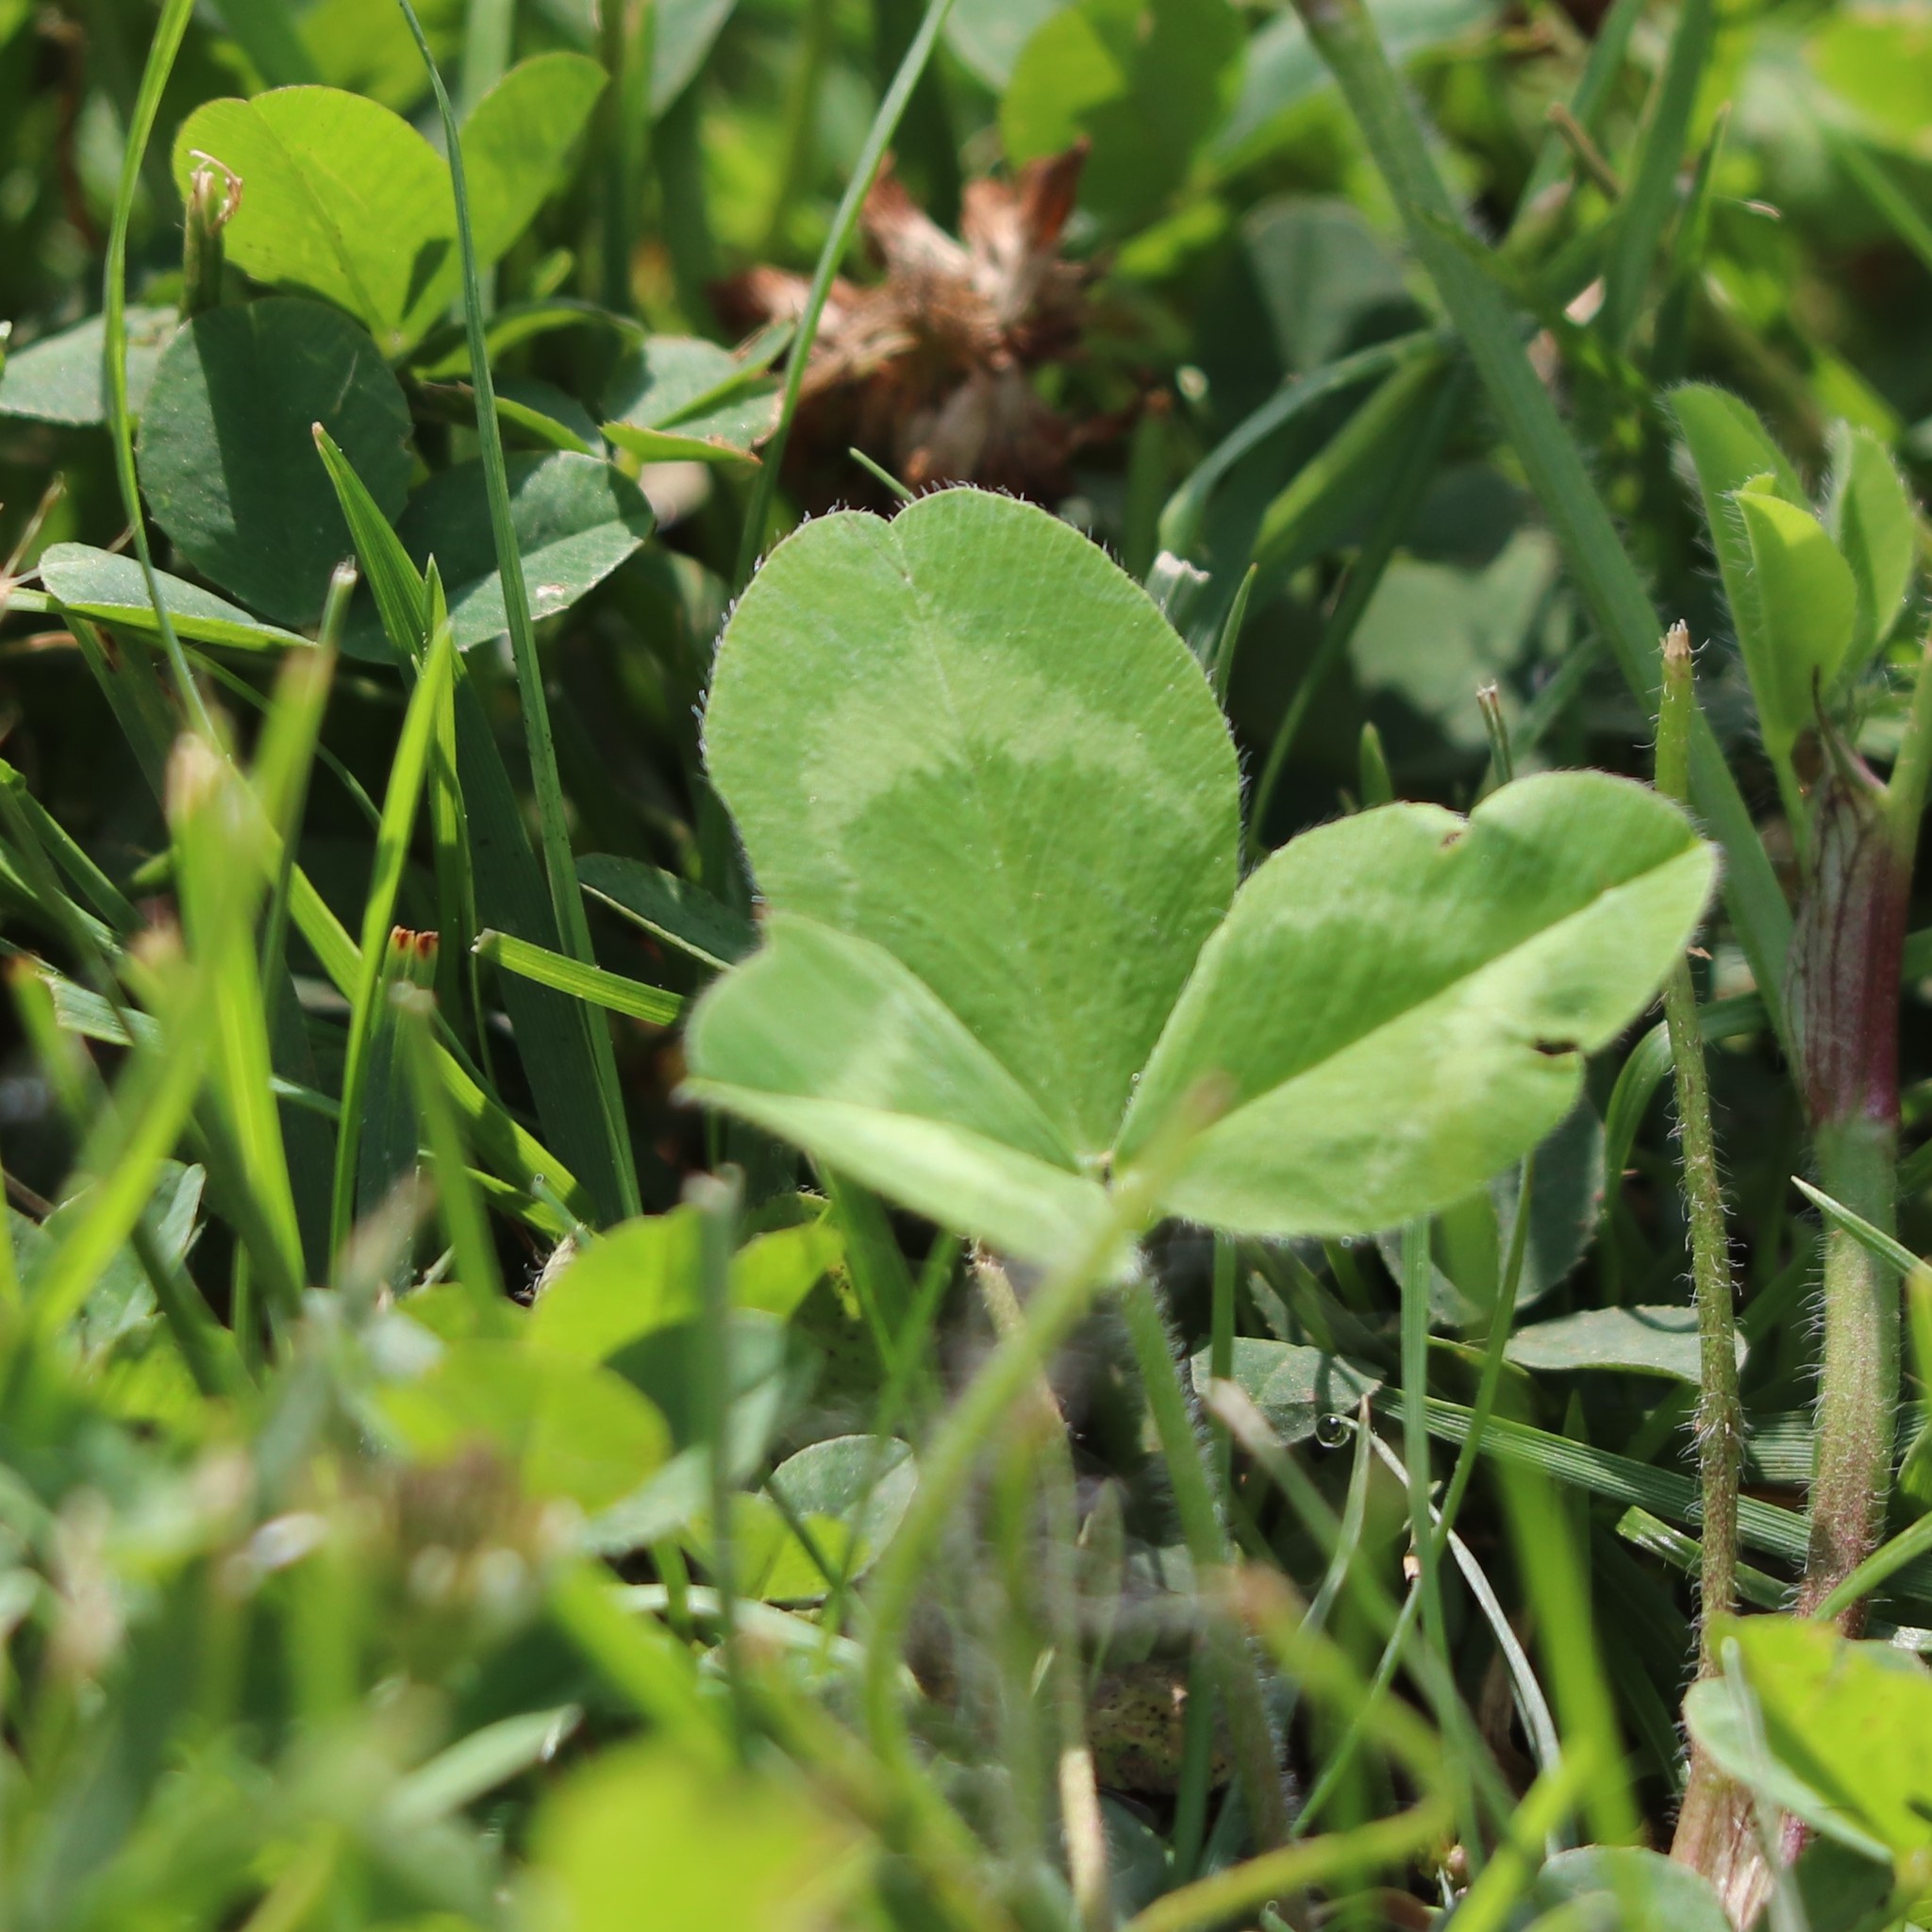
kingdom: Plantae
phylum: Tracheophyta
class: Magnoliopsida
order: Fabales
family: Fabaceae
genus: Trifolium
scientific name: Trifolium pratense
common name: Red clover
